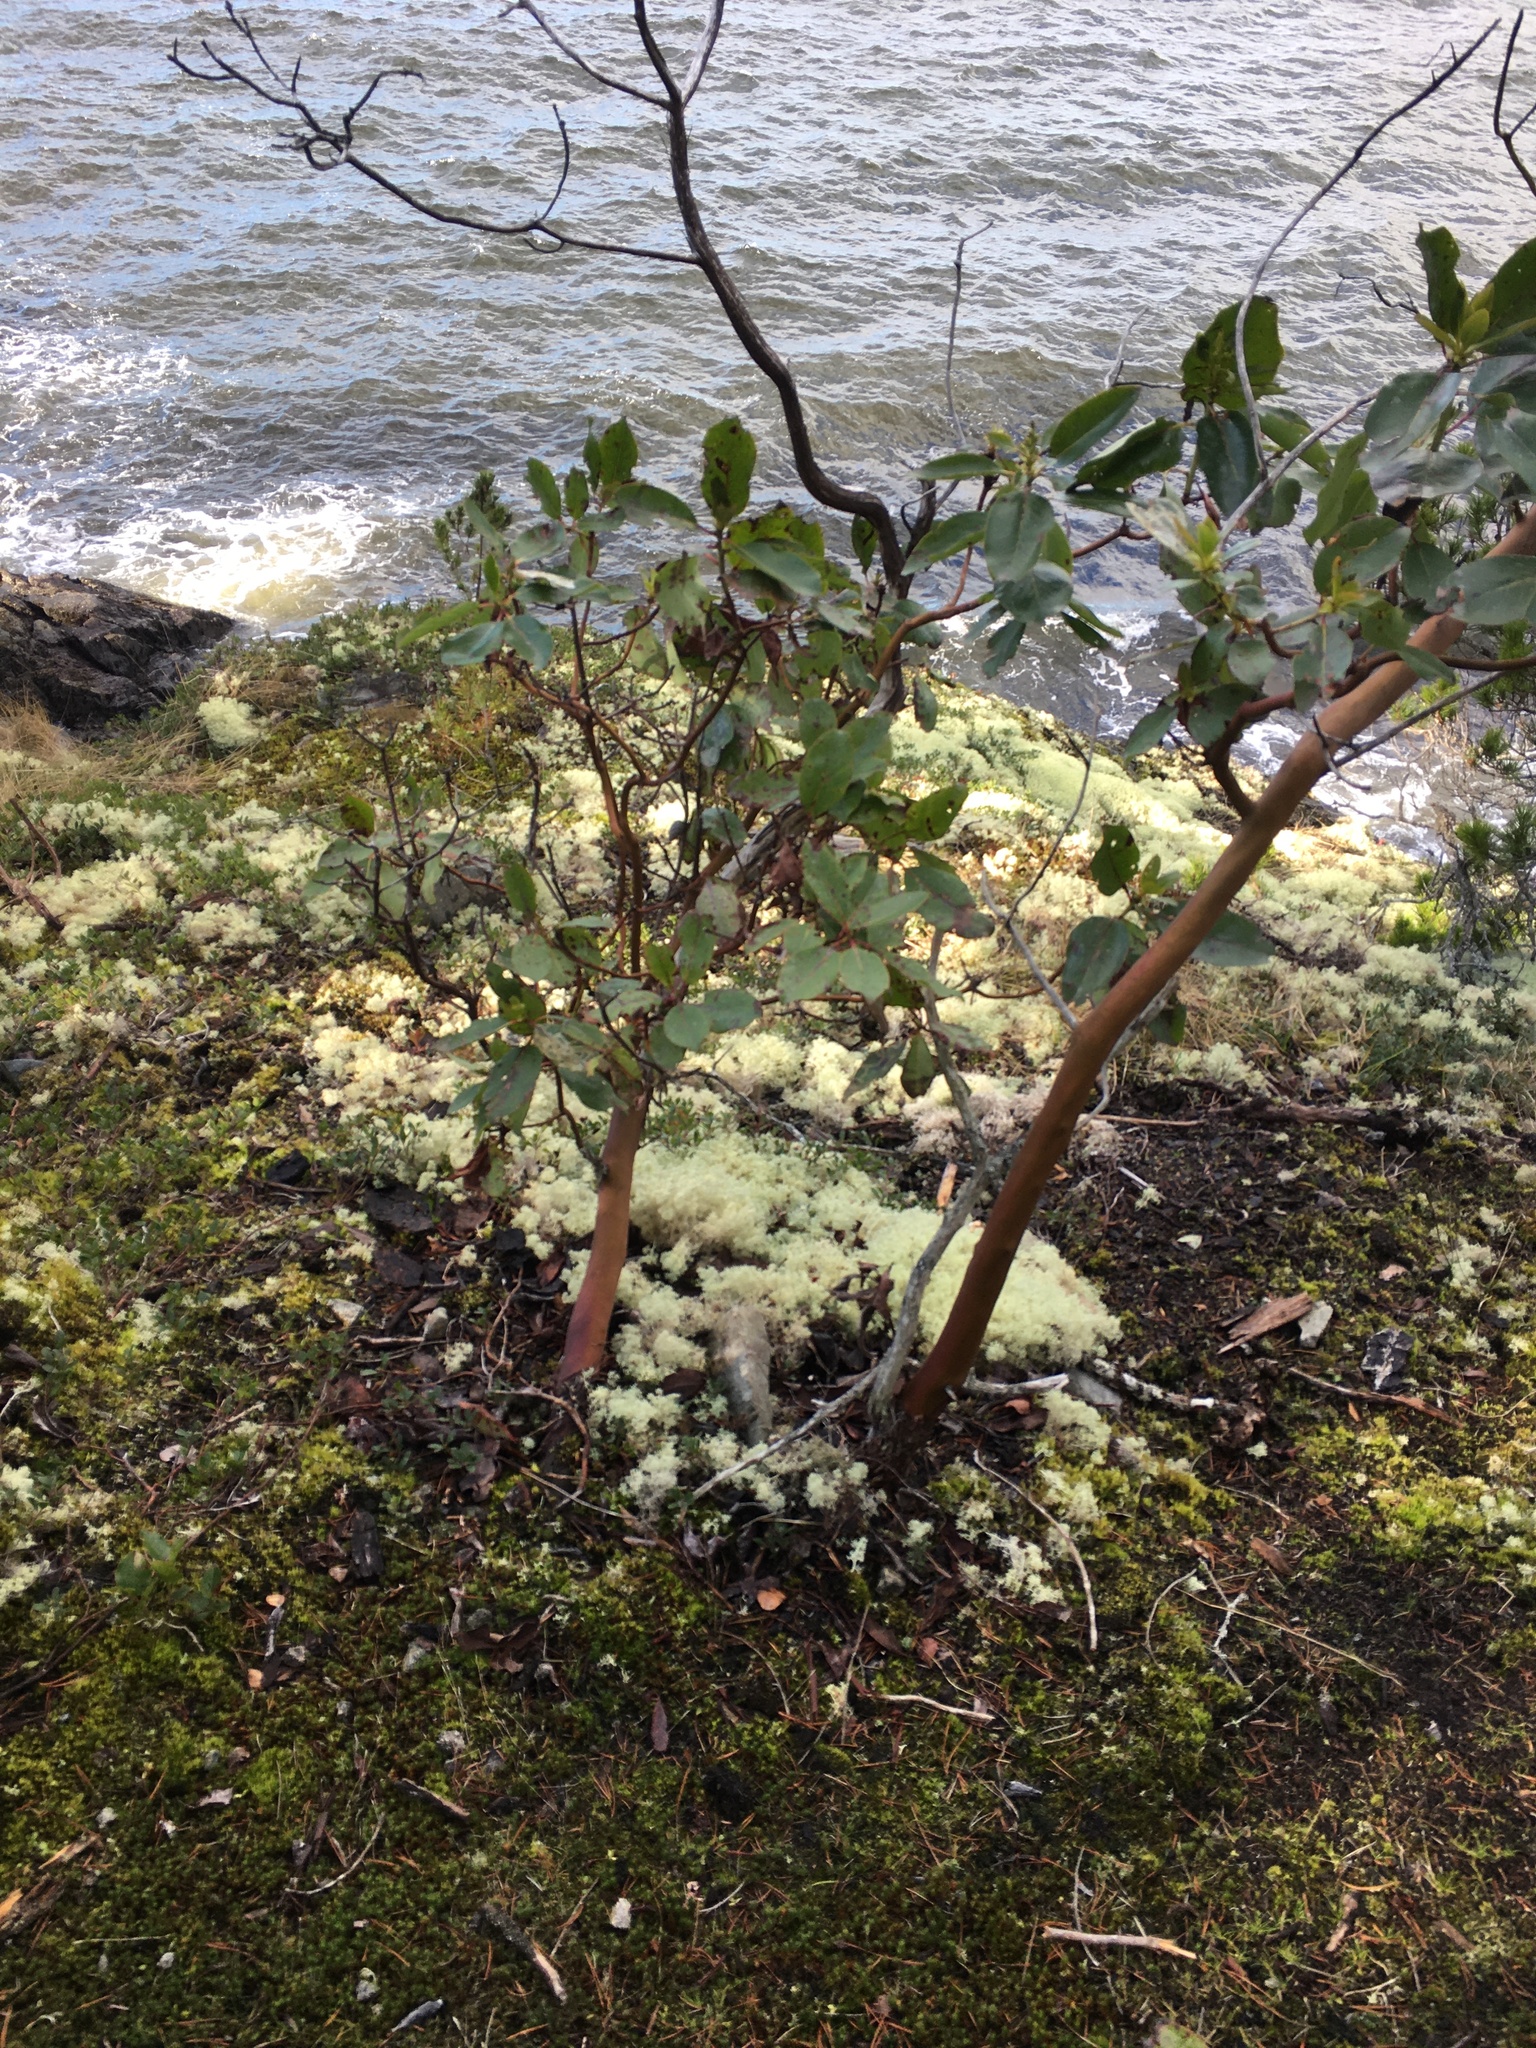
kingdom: Plantae
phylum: Tracheophyta
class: Magnoliopsida
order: Ericales
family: Ericaceae
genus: Arbutus
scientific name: Arbutus menziesii
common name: Pacific madrone
